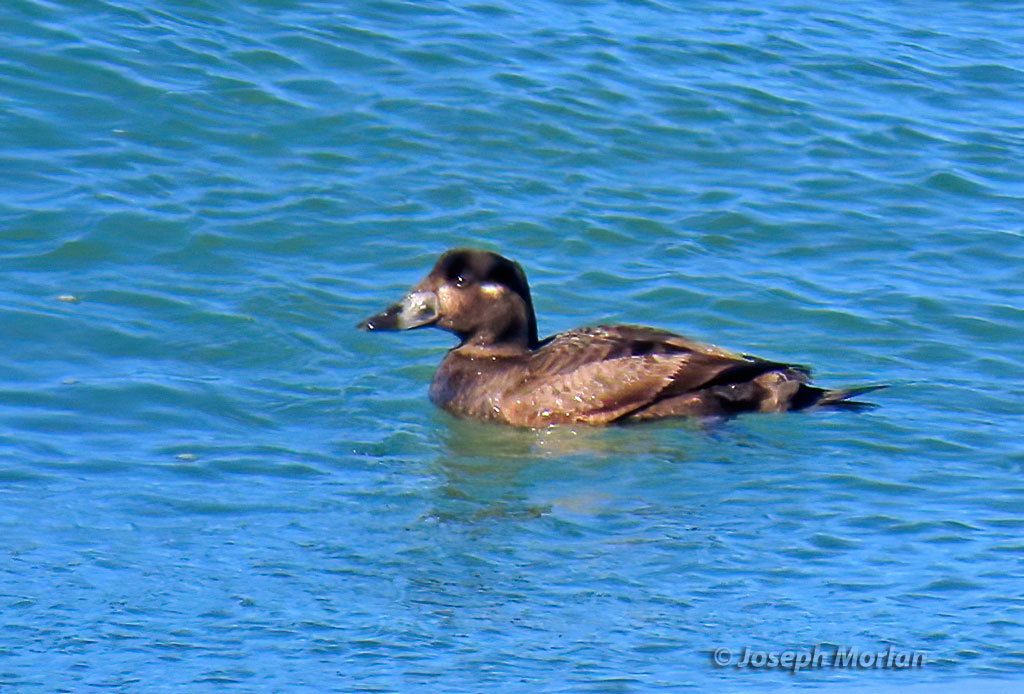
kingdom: Animalia
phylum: Chordata
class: Aves
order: Anseriformes
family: Anatidae
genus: Melanitta
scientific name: Melanitta perspicillata
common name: Surf scoter
